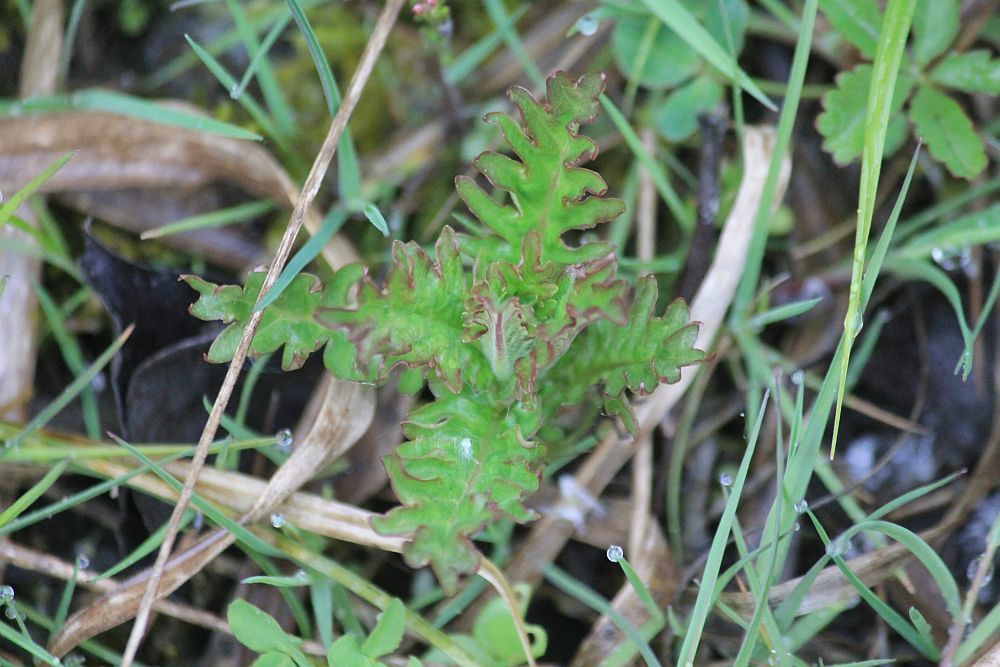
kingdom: Plantae
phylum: Tracheophyta
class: Magnoliopsida
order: Lamiales
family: Lamiaceae
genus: Lycopus
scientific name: Lycopus europaeus
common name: European bugleweed
